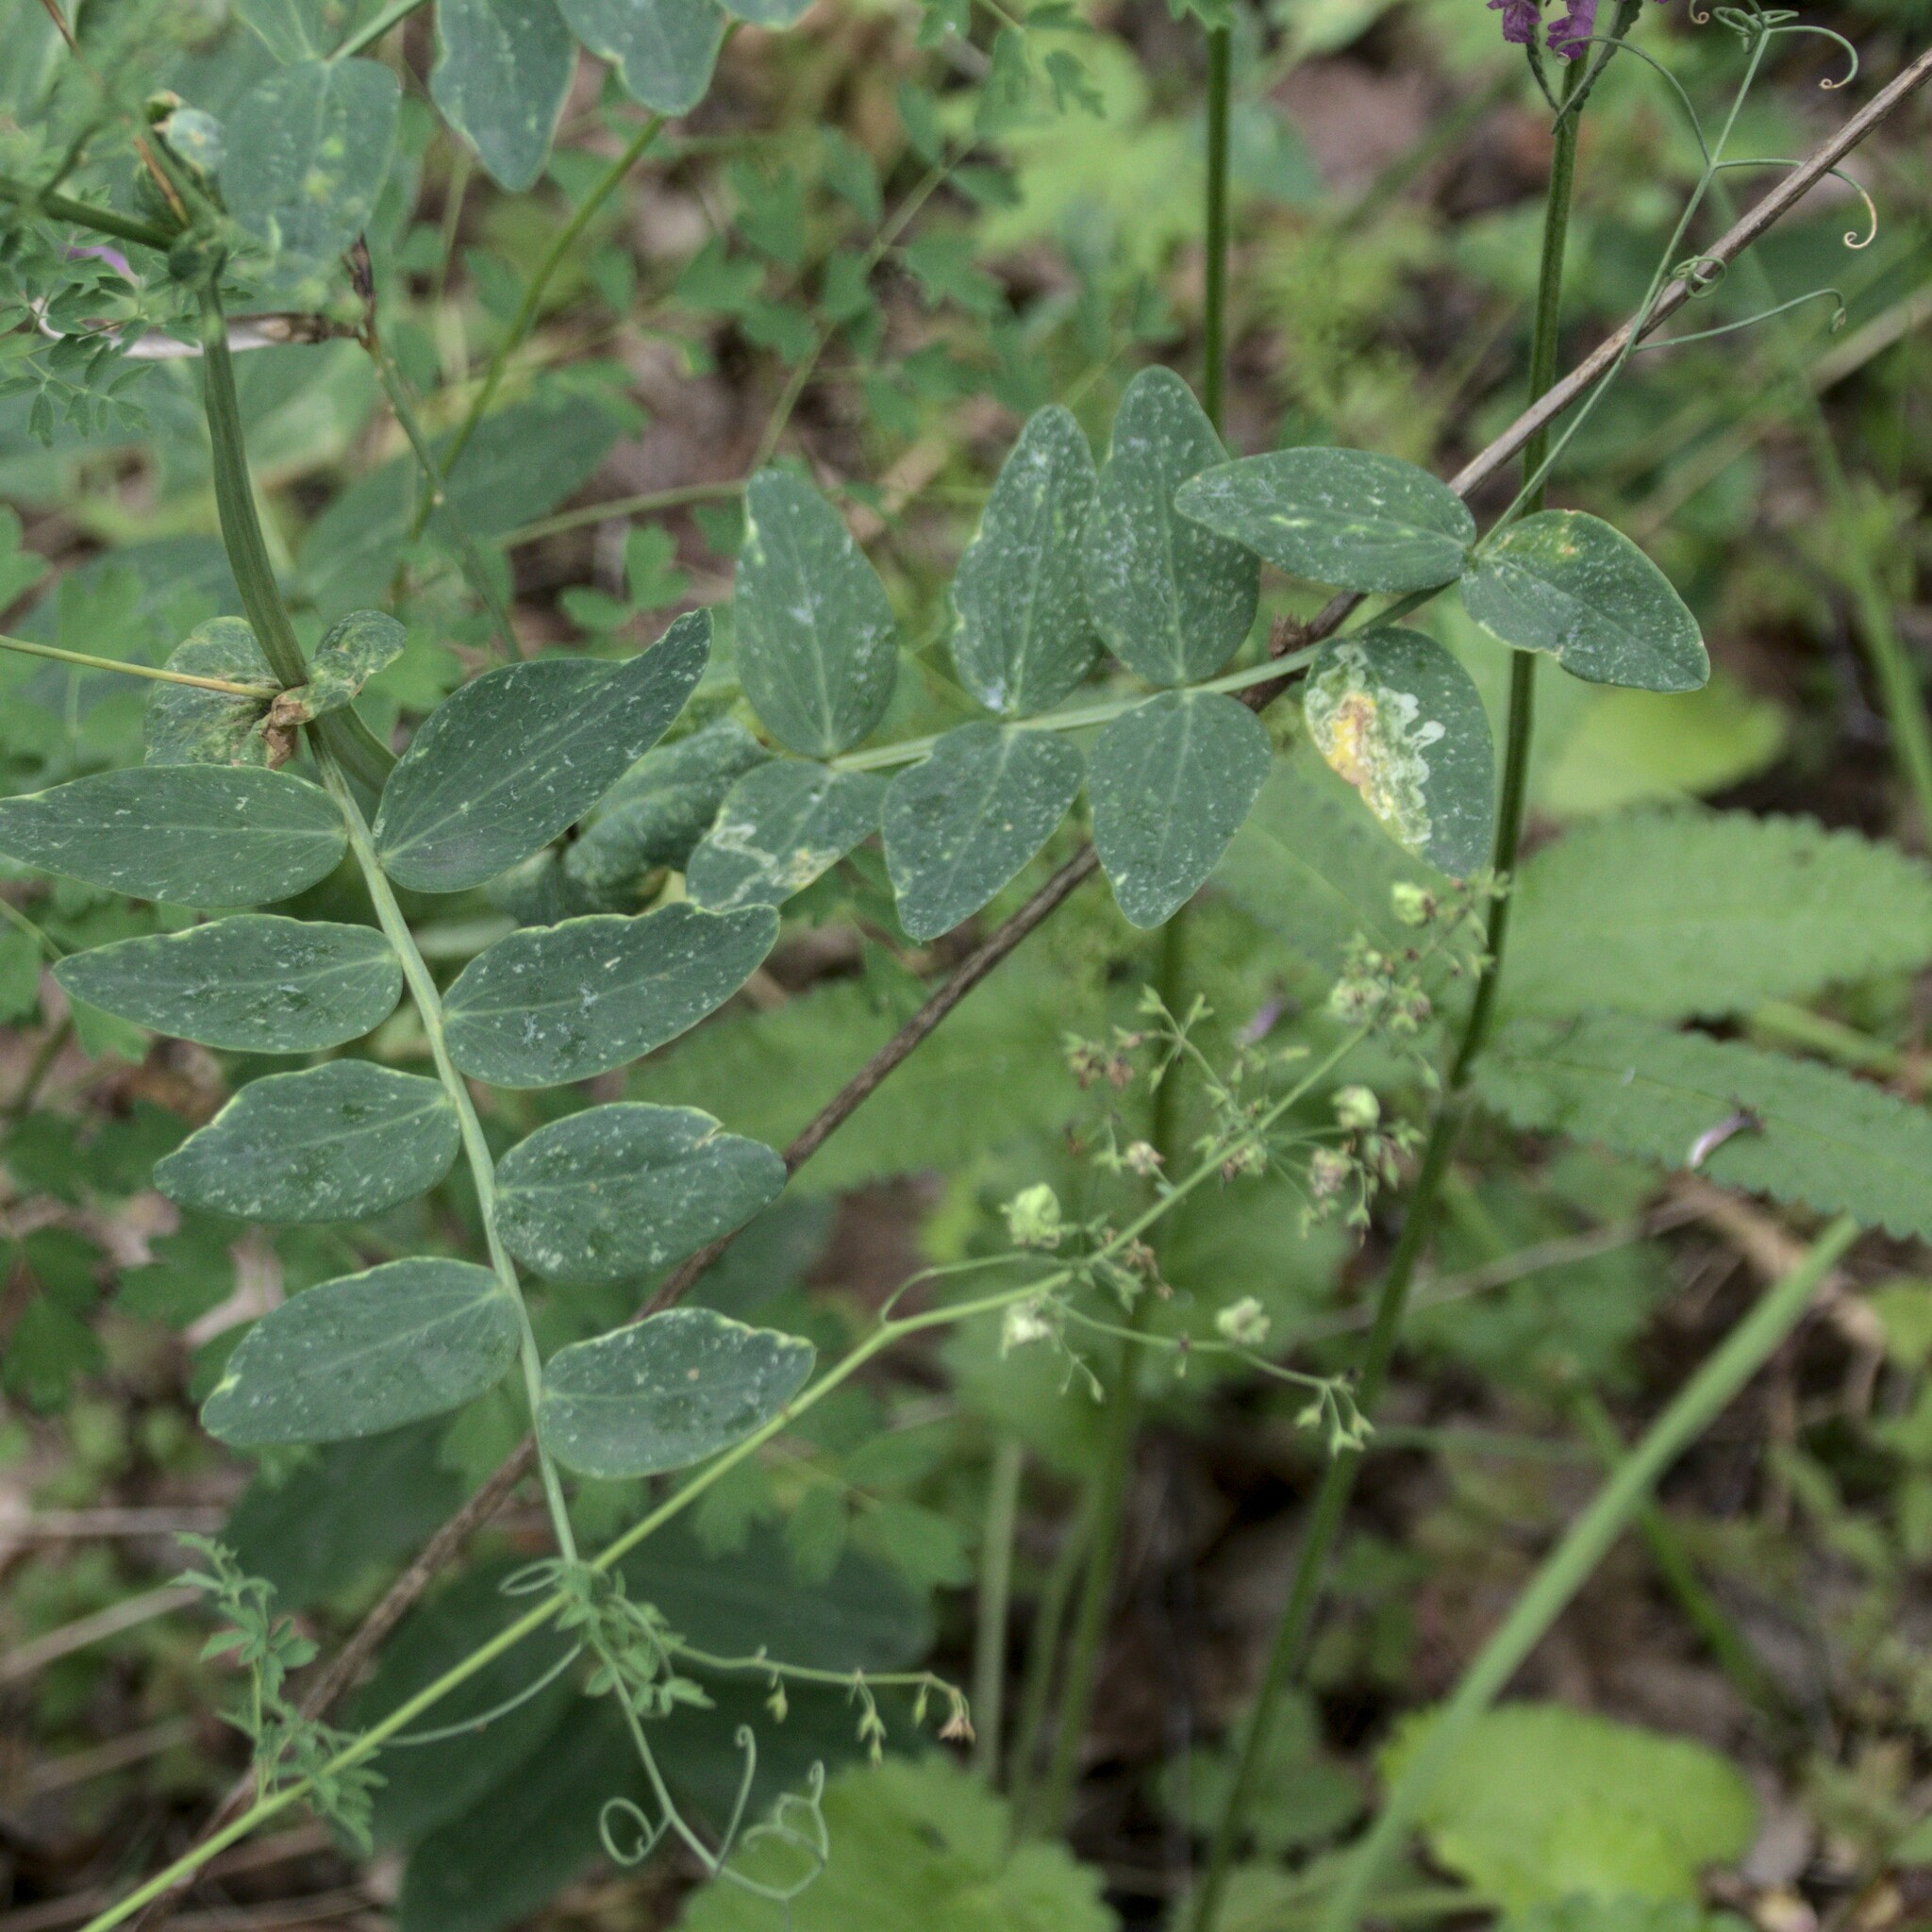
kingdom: Plantae
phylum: Tracheophyta
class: Magnoliopsida
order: Fabales
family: Fabaceae
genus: Lathyrus
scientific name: Lathyrus pisiformis
